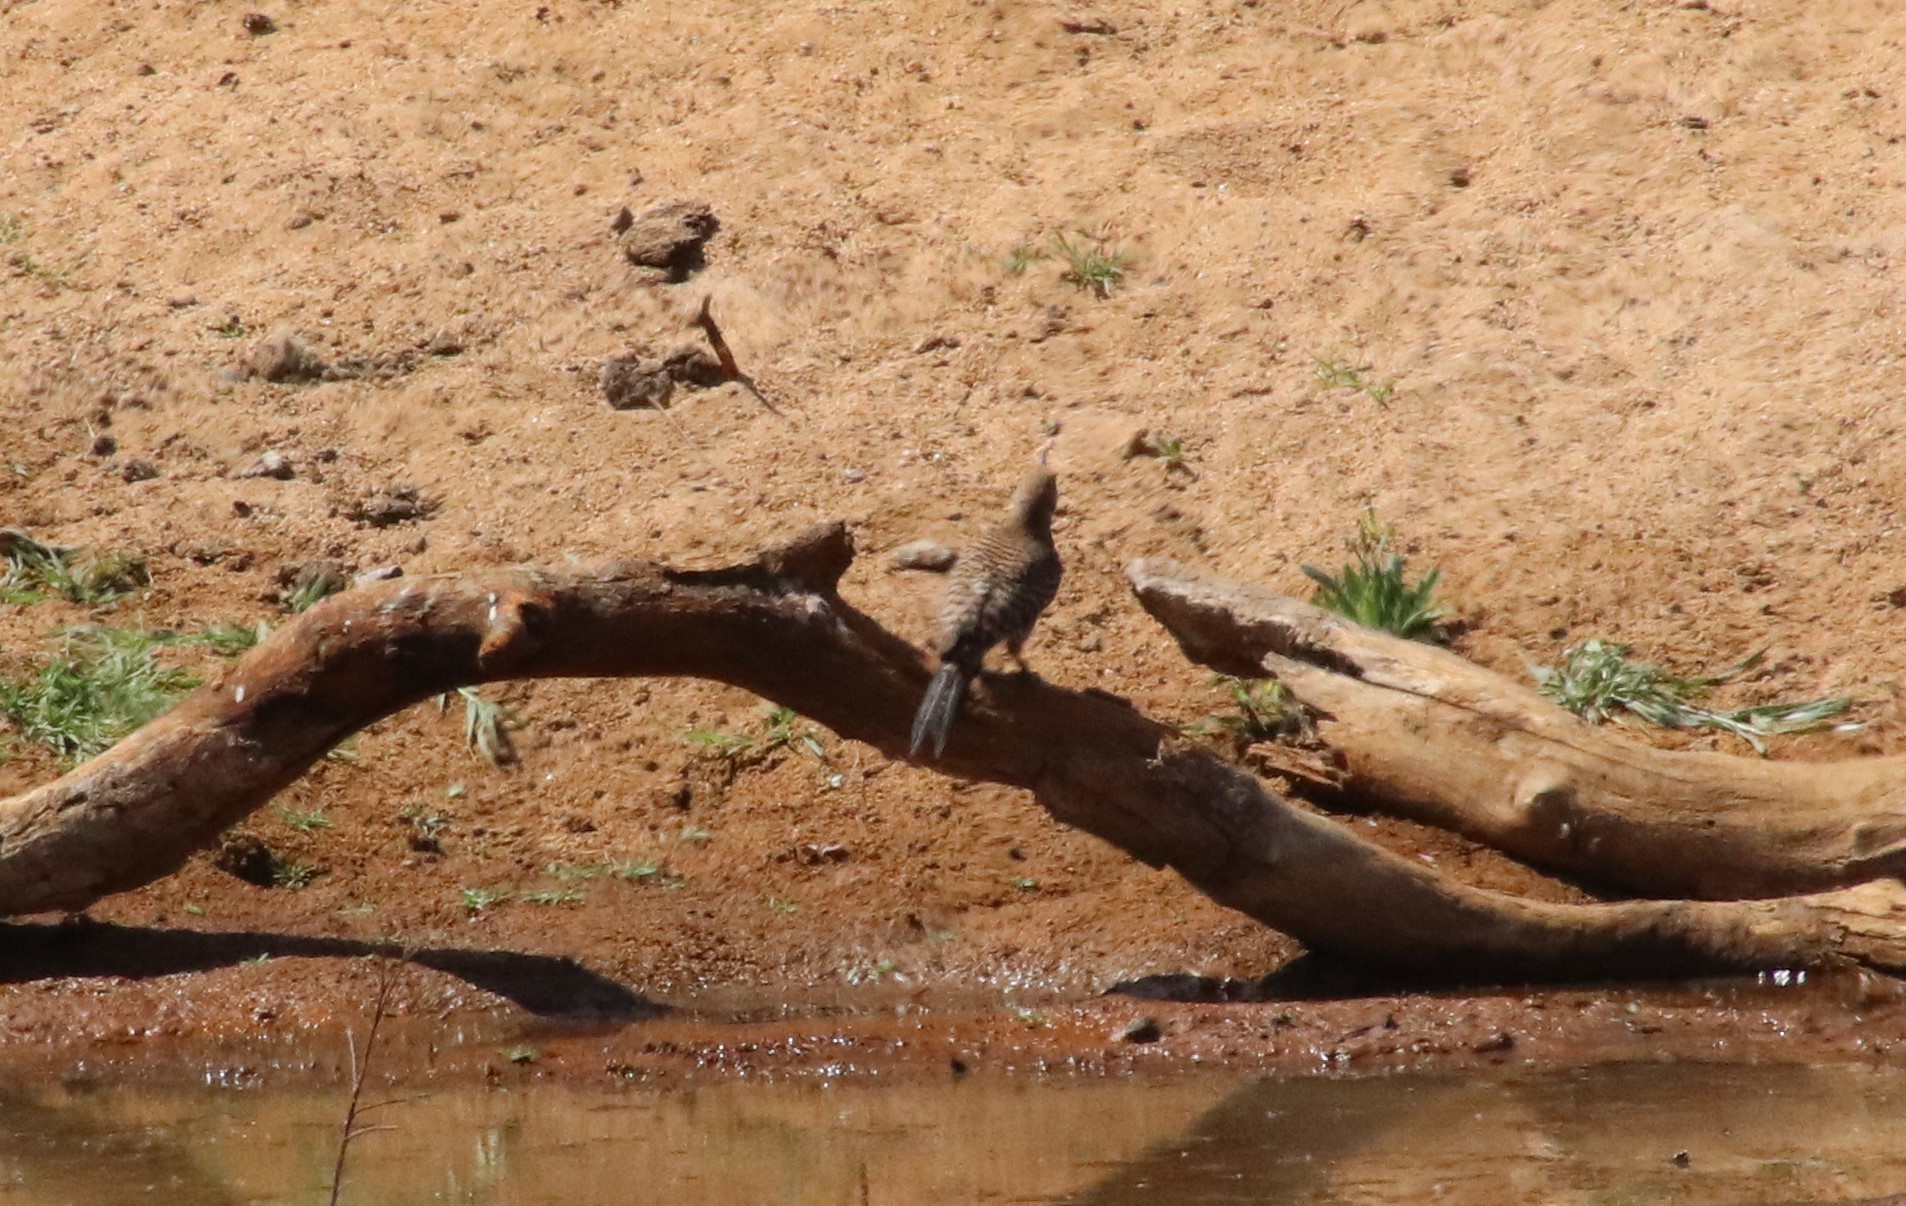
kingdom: Animalia
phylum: Chordata
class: Aves
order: Piciformes
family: Picidae
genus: Colaptes
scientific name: Colaptes auratus
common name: Northern flicker
